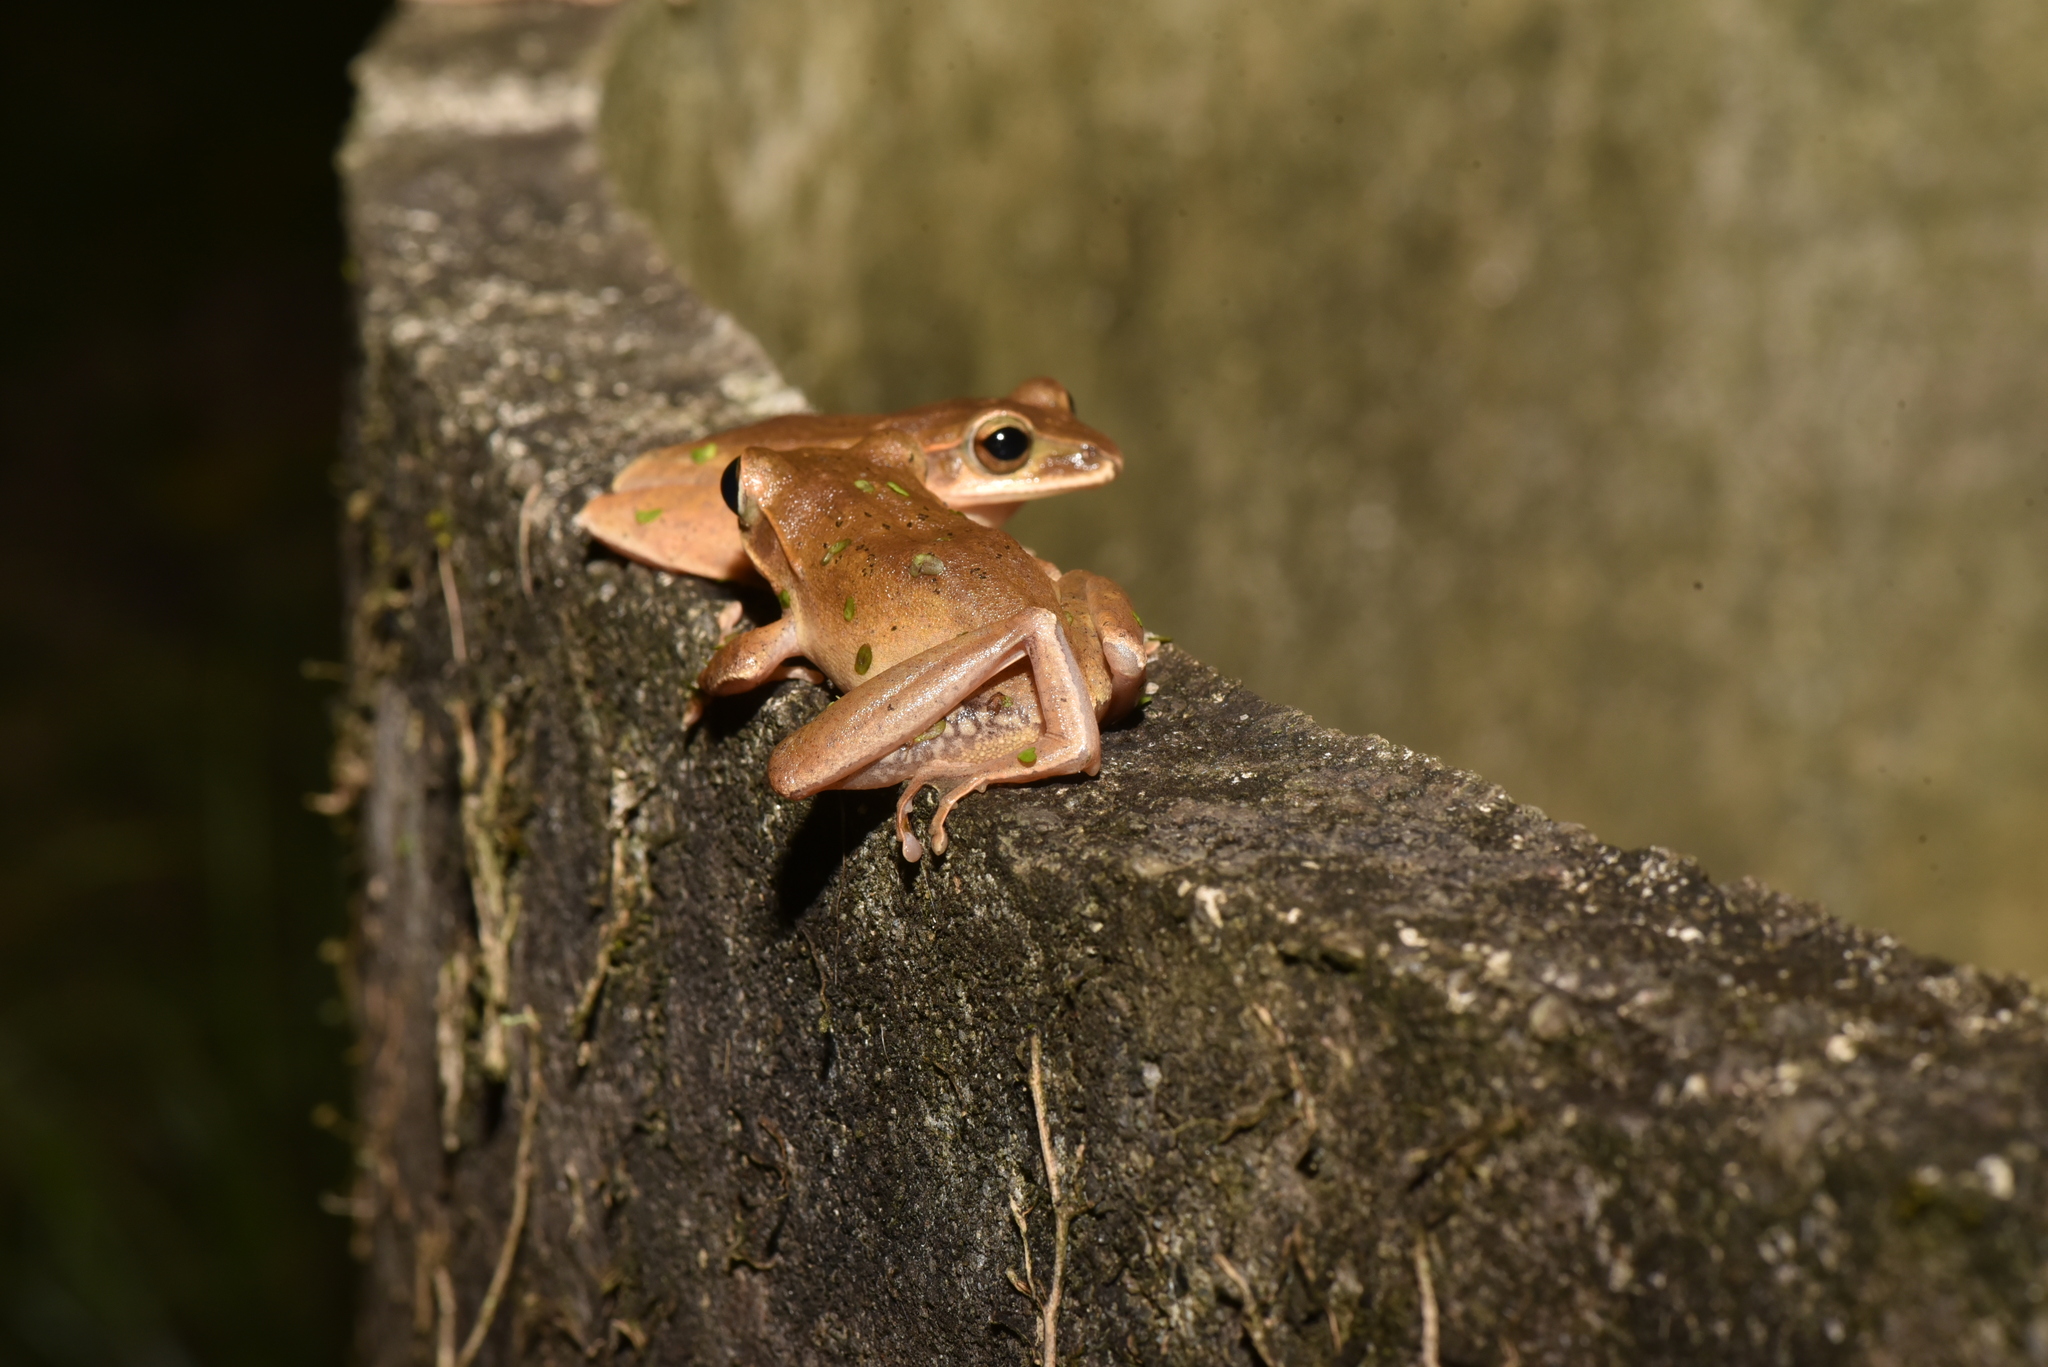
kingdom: Animalia
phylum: Chordata
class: Amphibia
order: Anura
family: Rhacophoridae
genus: Polypedates
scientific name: Polypedates braueri
